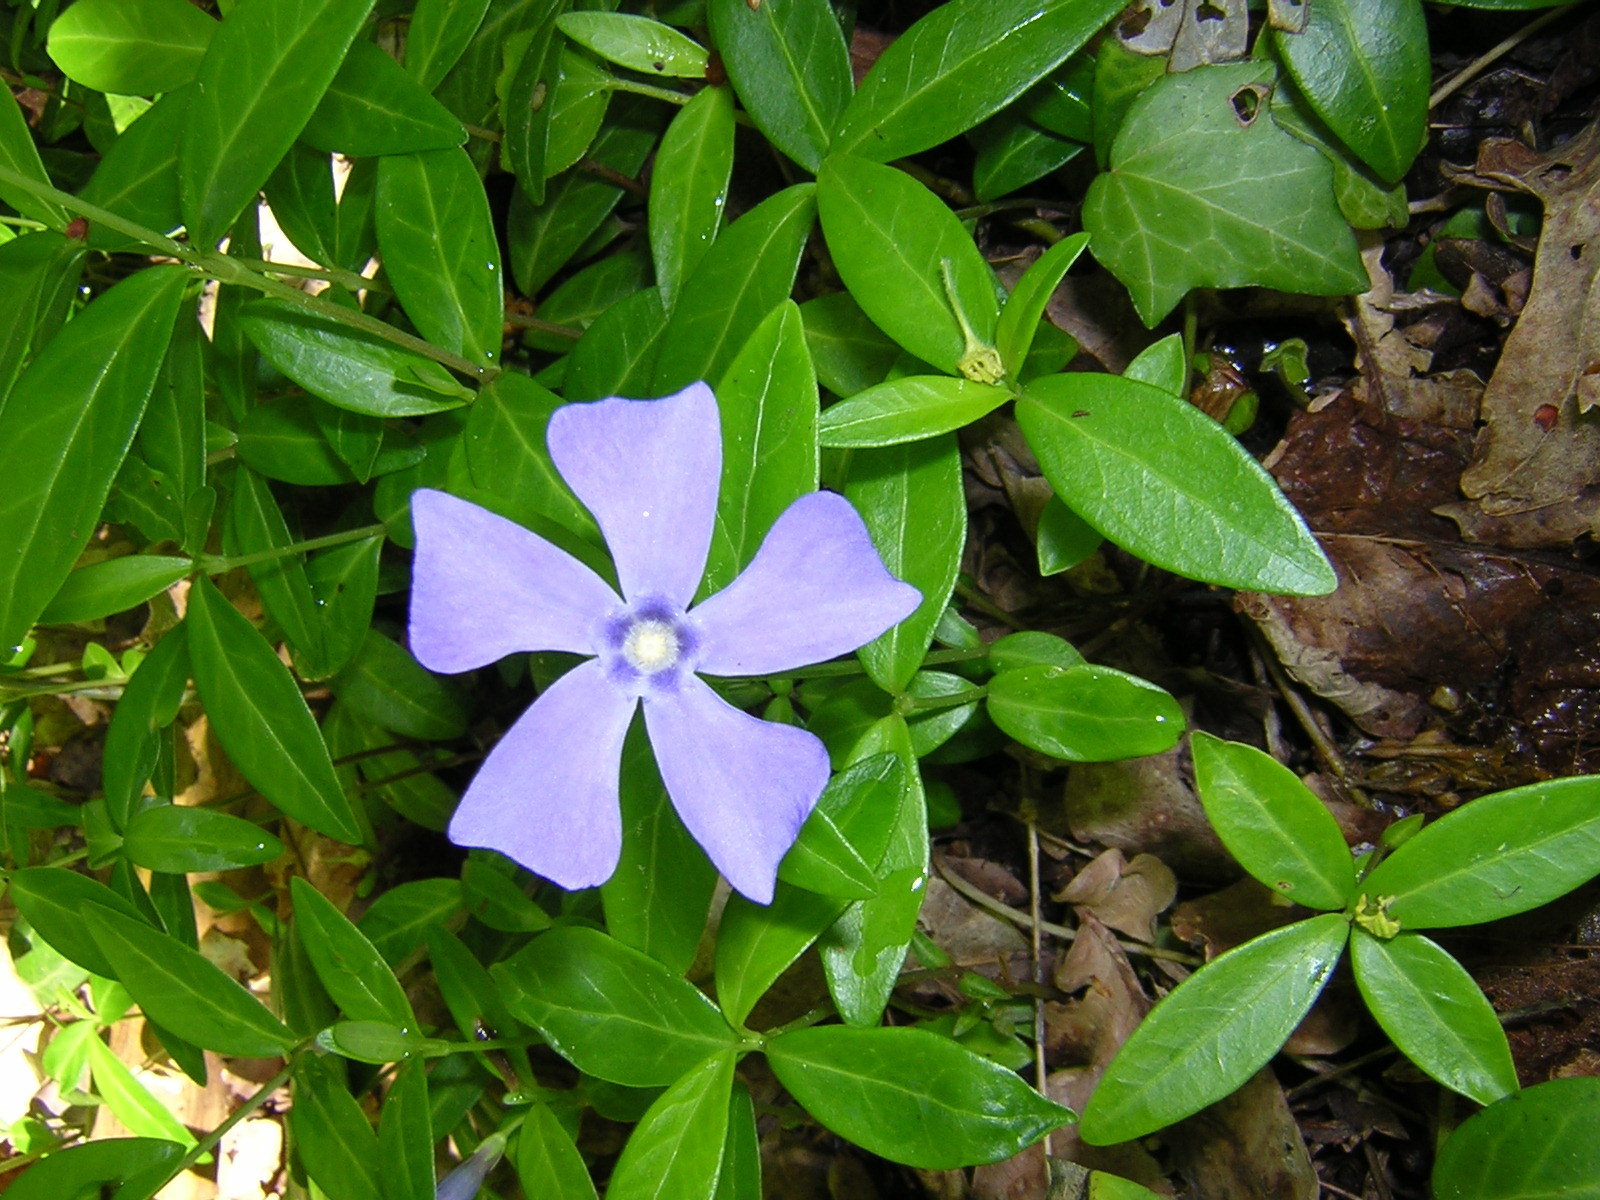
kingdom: Plantae
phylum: Tracheophyta
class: Magnoliopsida
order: Gentianales
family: Apocynaceae
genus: Vinca
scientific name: Vinca minor
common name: Lesser periwinkle
